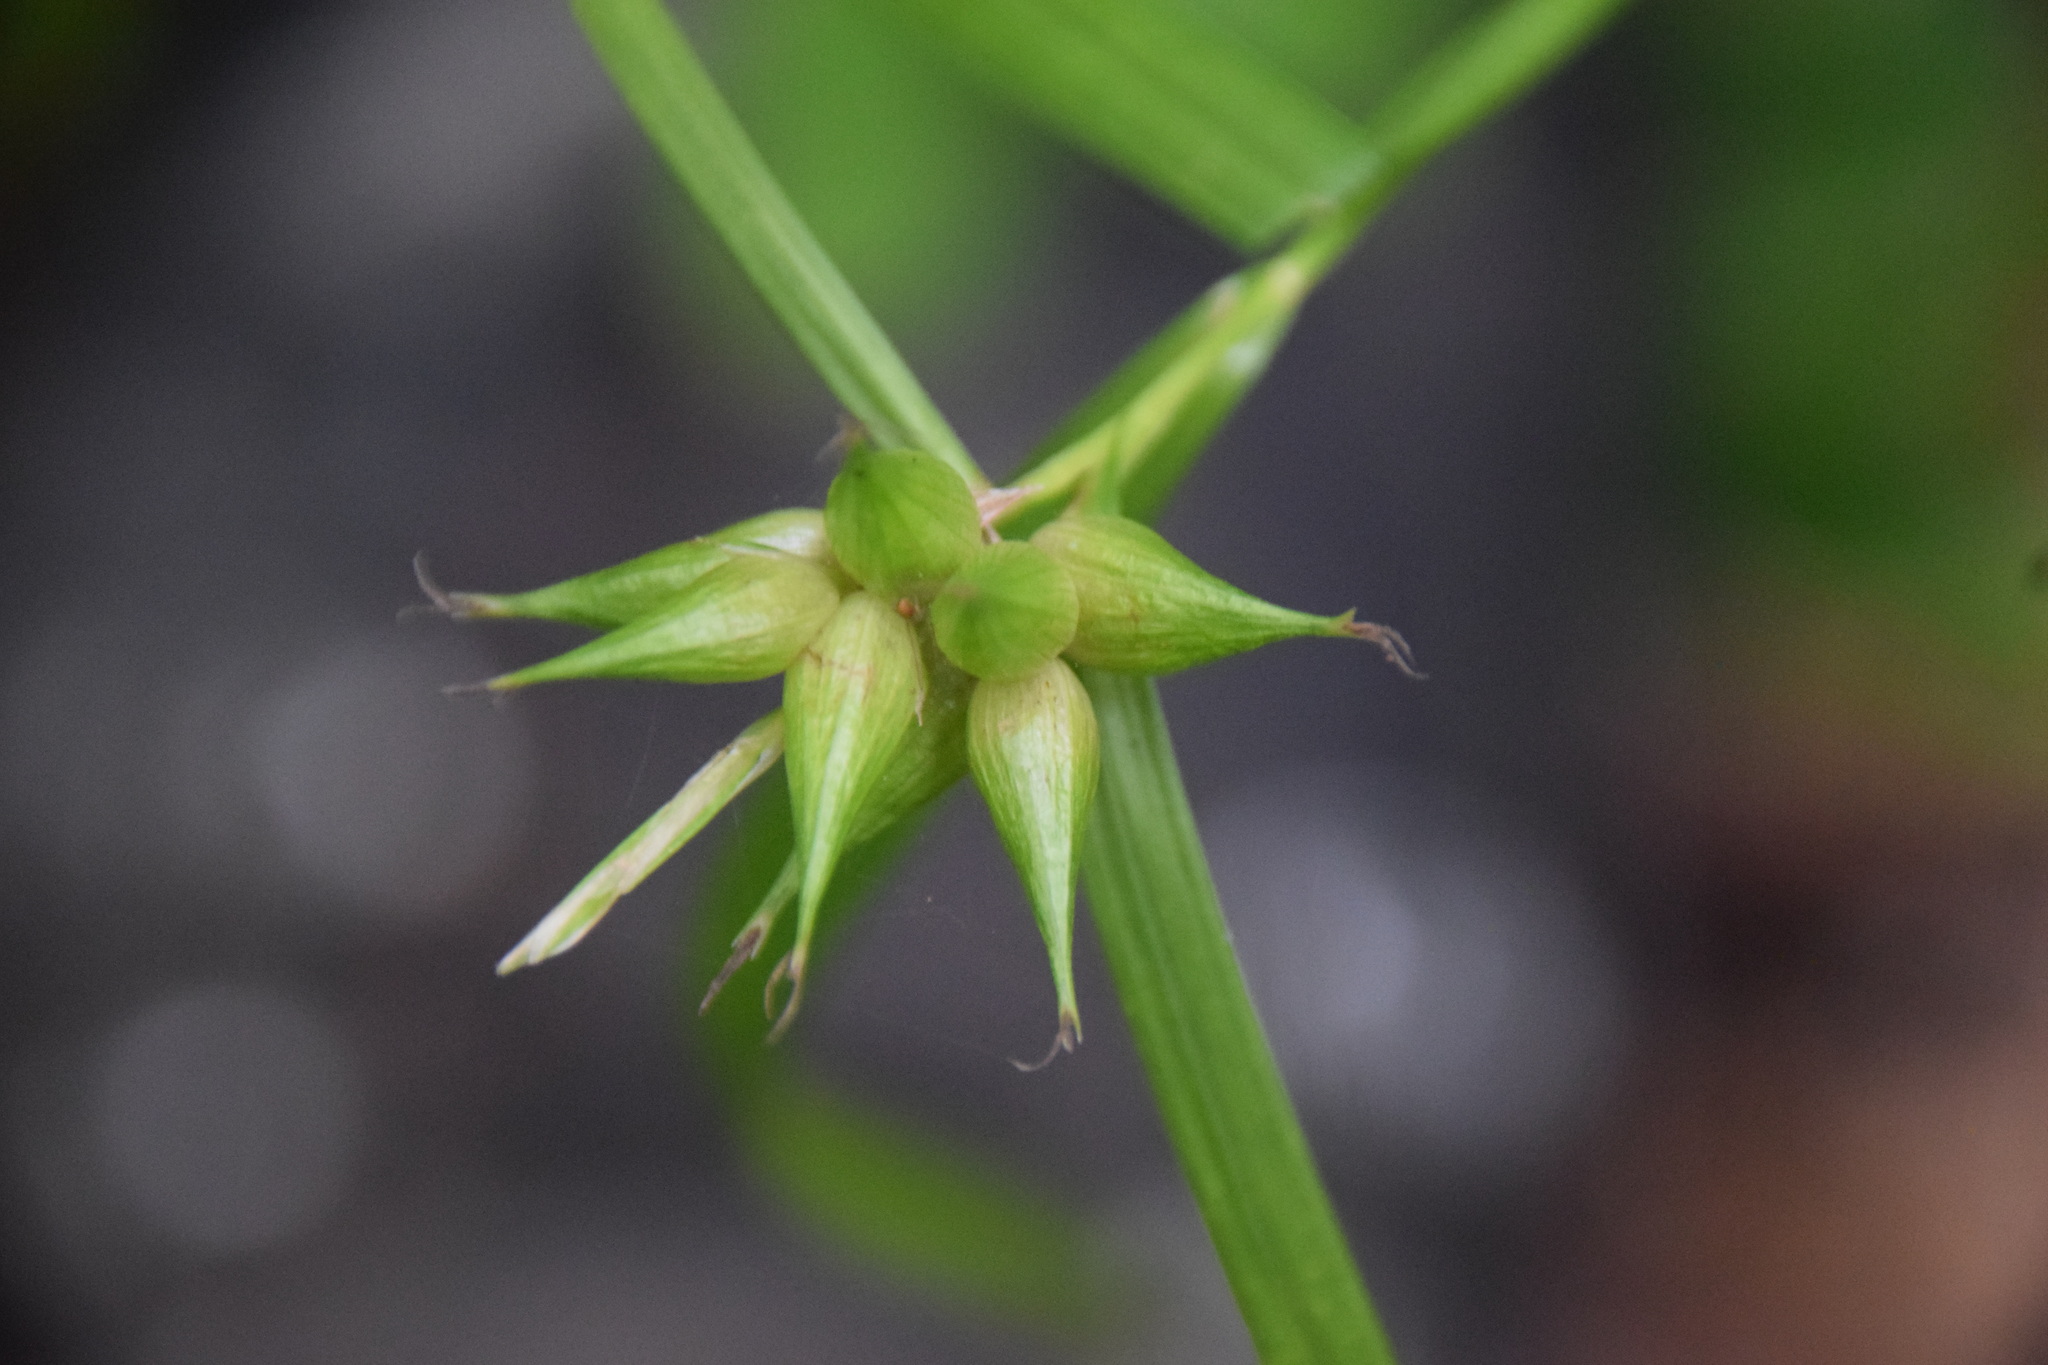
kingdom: Plantae
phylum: Tracheophyta
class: Liliopsida
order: Poales
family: Cyperaceae
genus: Carex
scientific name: Carex intumescens
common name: Greater bladder sedge
